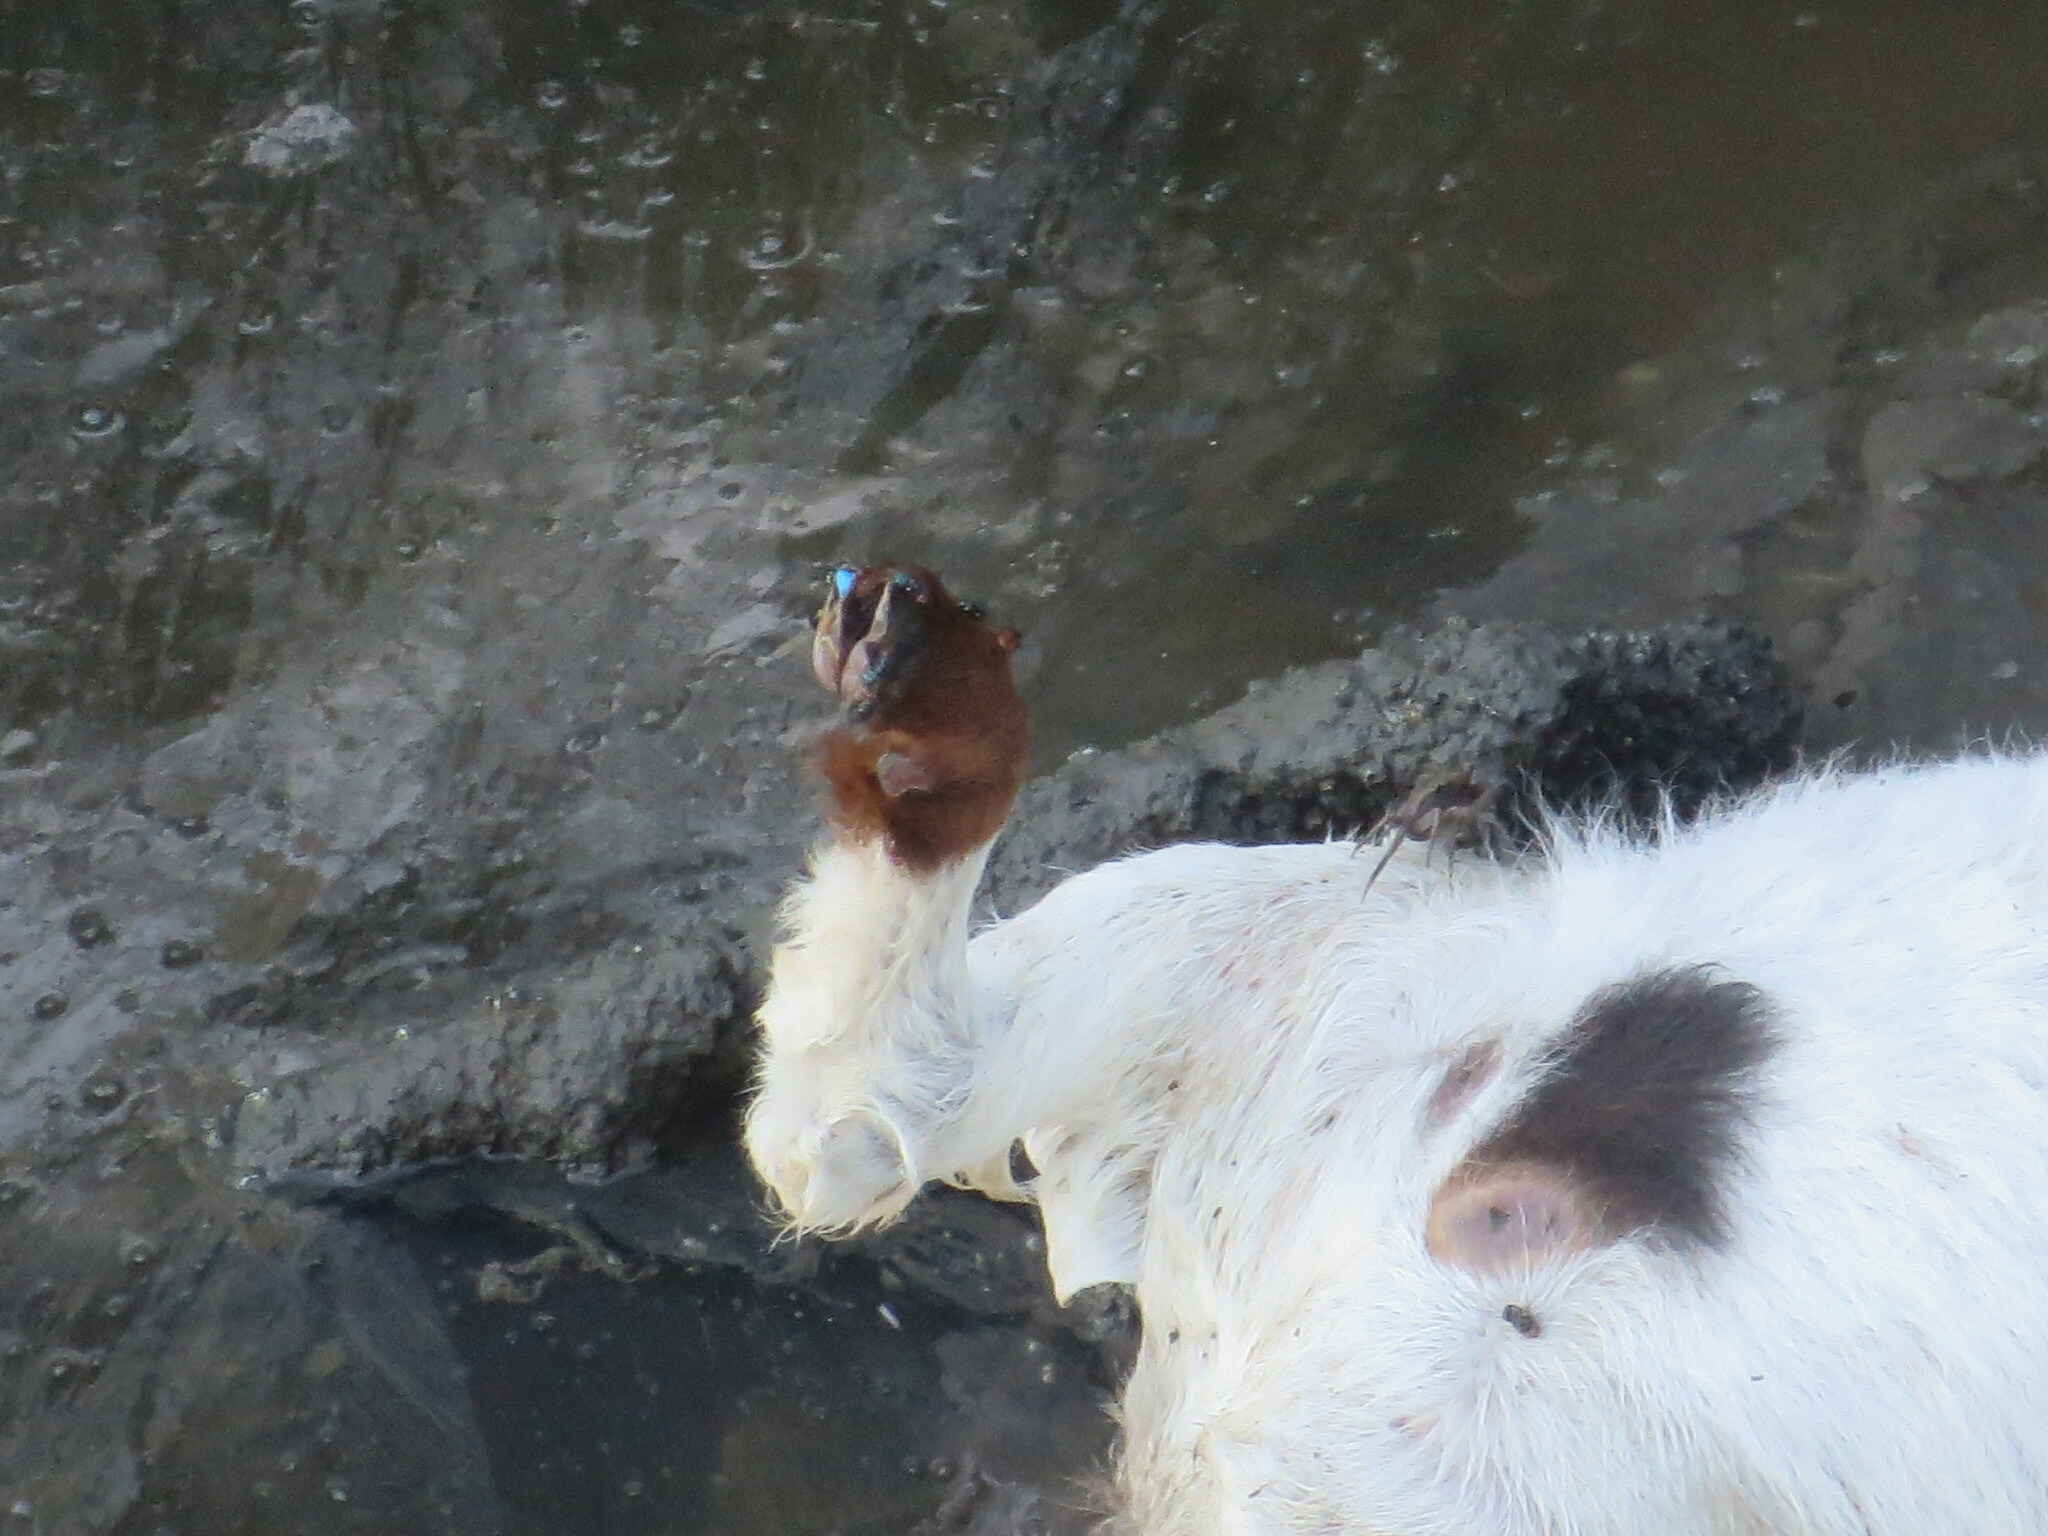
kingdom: Animalia
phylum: Chordata
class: Mammalia
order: Artiodactyla
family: Bovidae
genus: Capra
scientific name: Capra hircus
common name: Domestic goat
